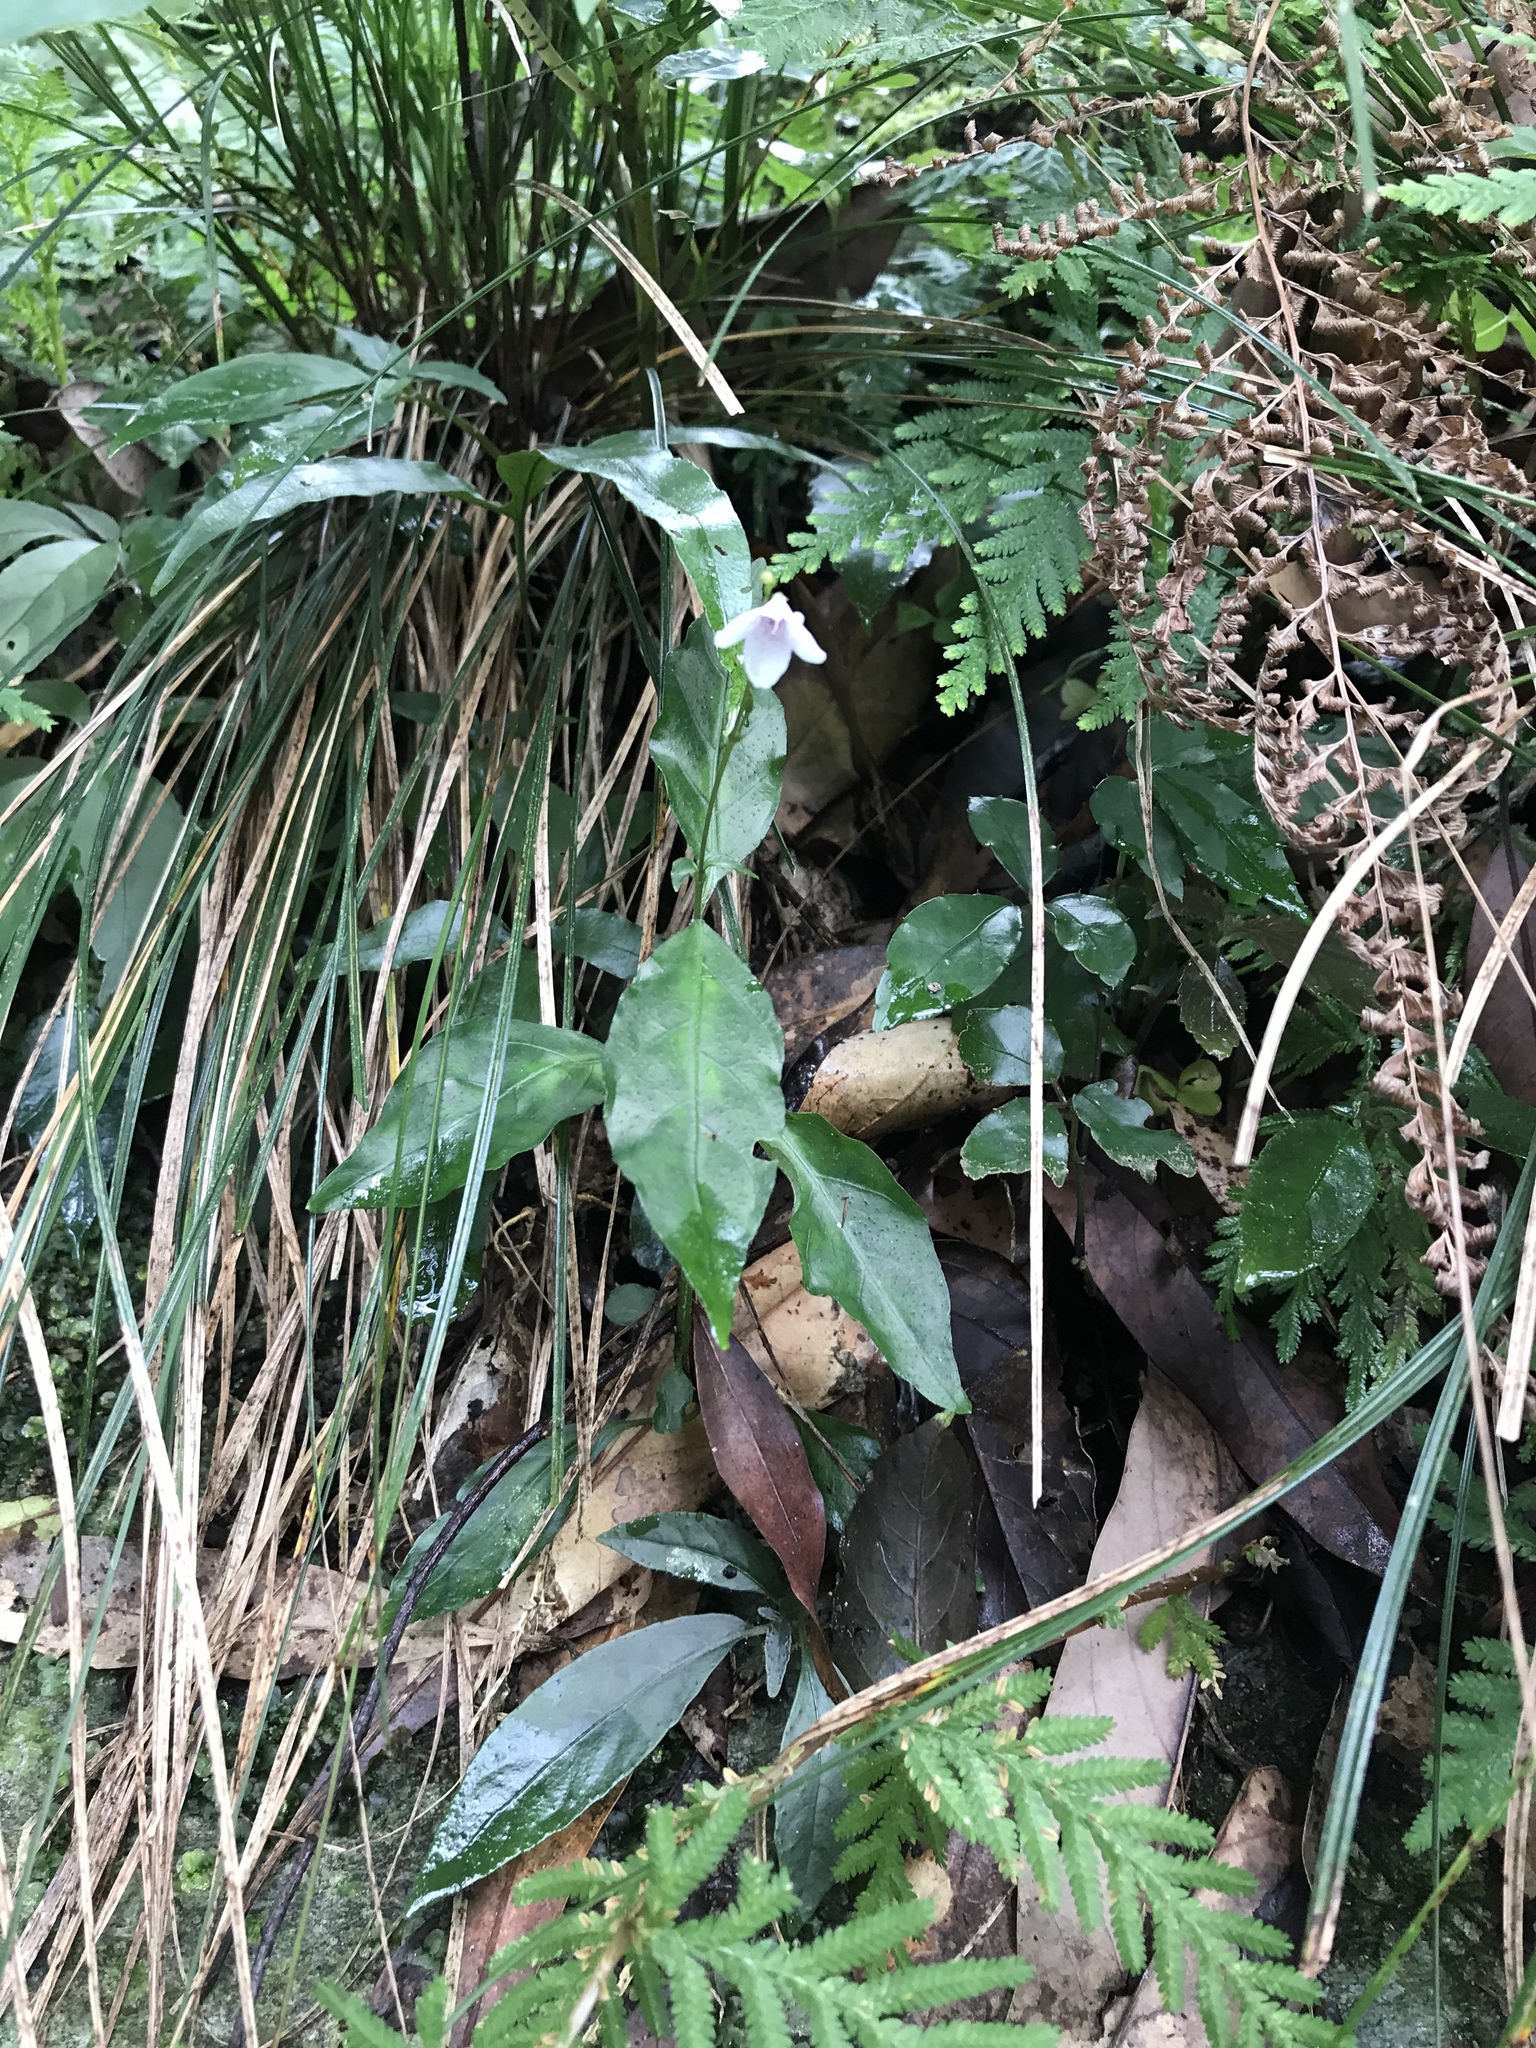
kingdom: Plantae
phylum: Tracheophyta
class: Magnoliopsida
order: Lamiales
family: Acanthaceae
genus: Codonacanthus
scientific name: Codonacanthus pauciflorus
